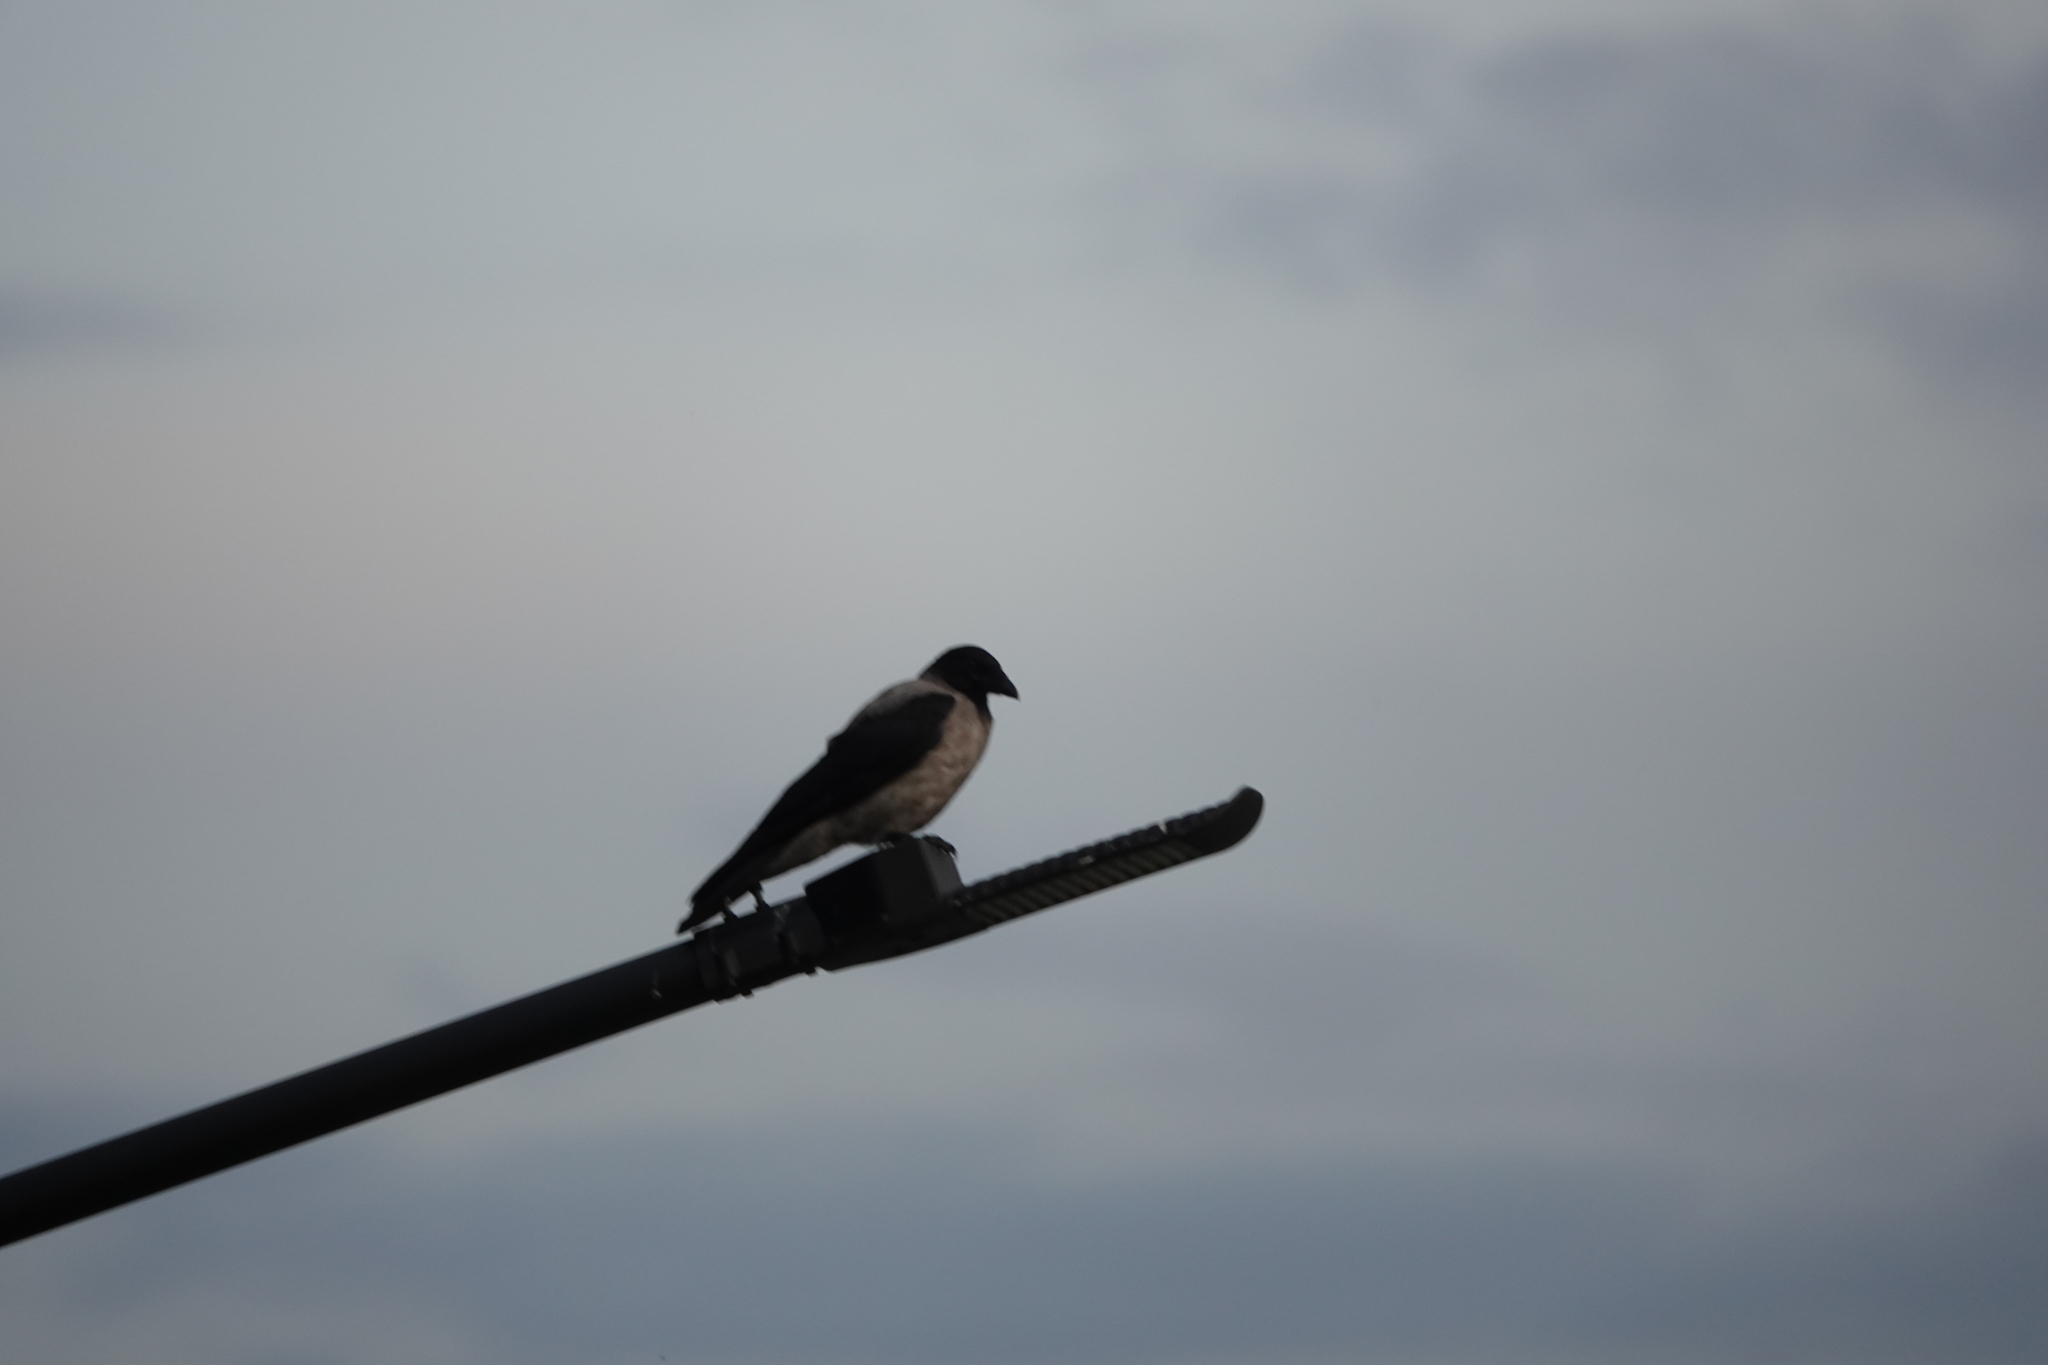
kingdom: Animalia
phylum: Chordata
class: Aves
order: Passeriformes
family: Corvidae
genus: Corvus
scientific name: Corvus cornix
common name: Hooded crow
